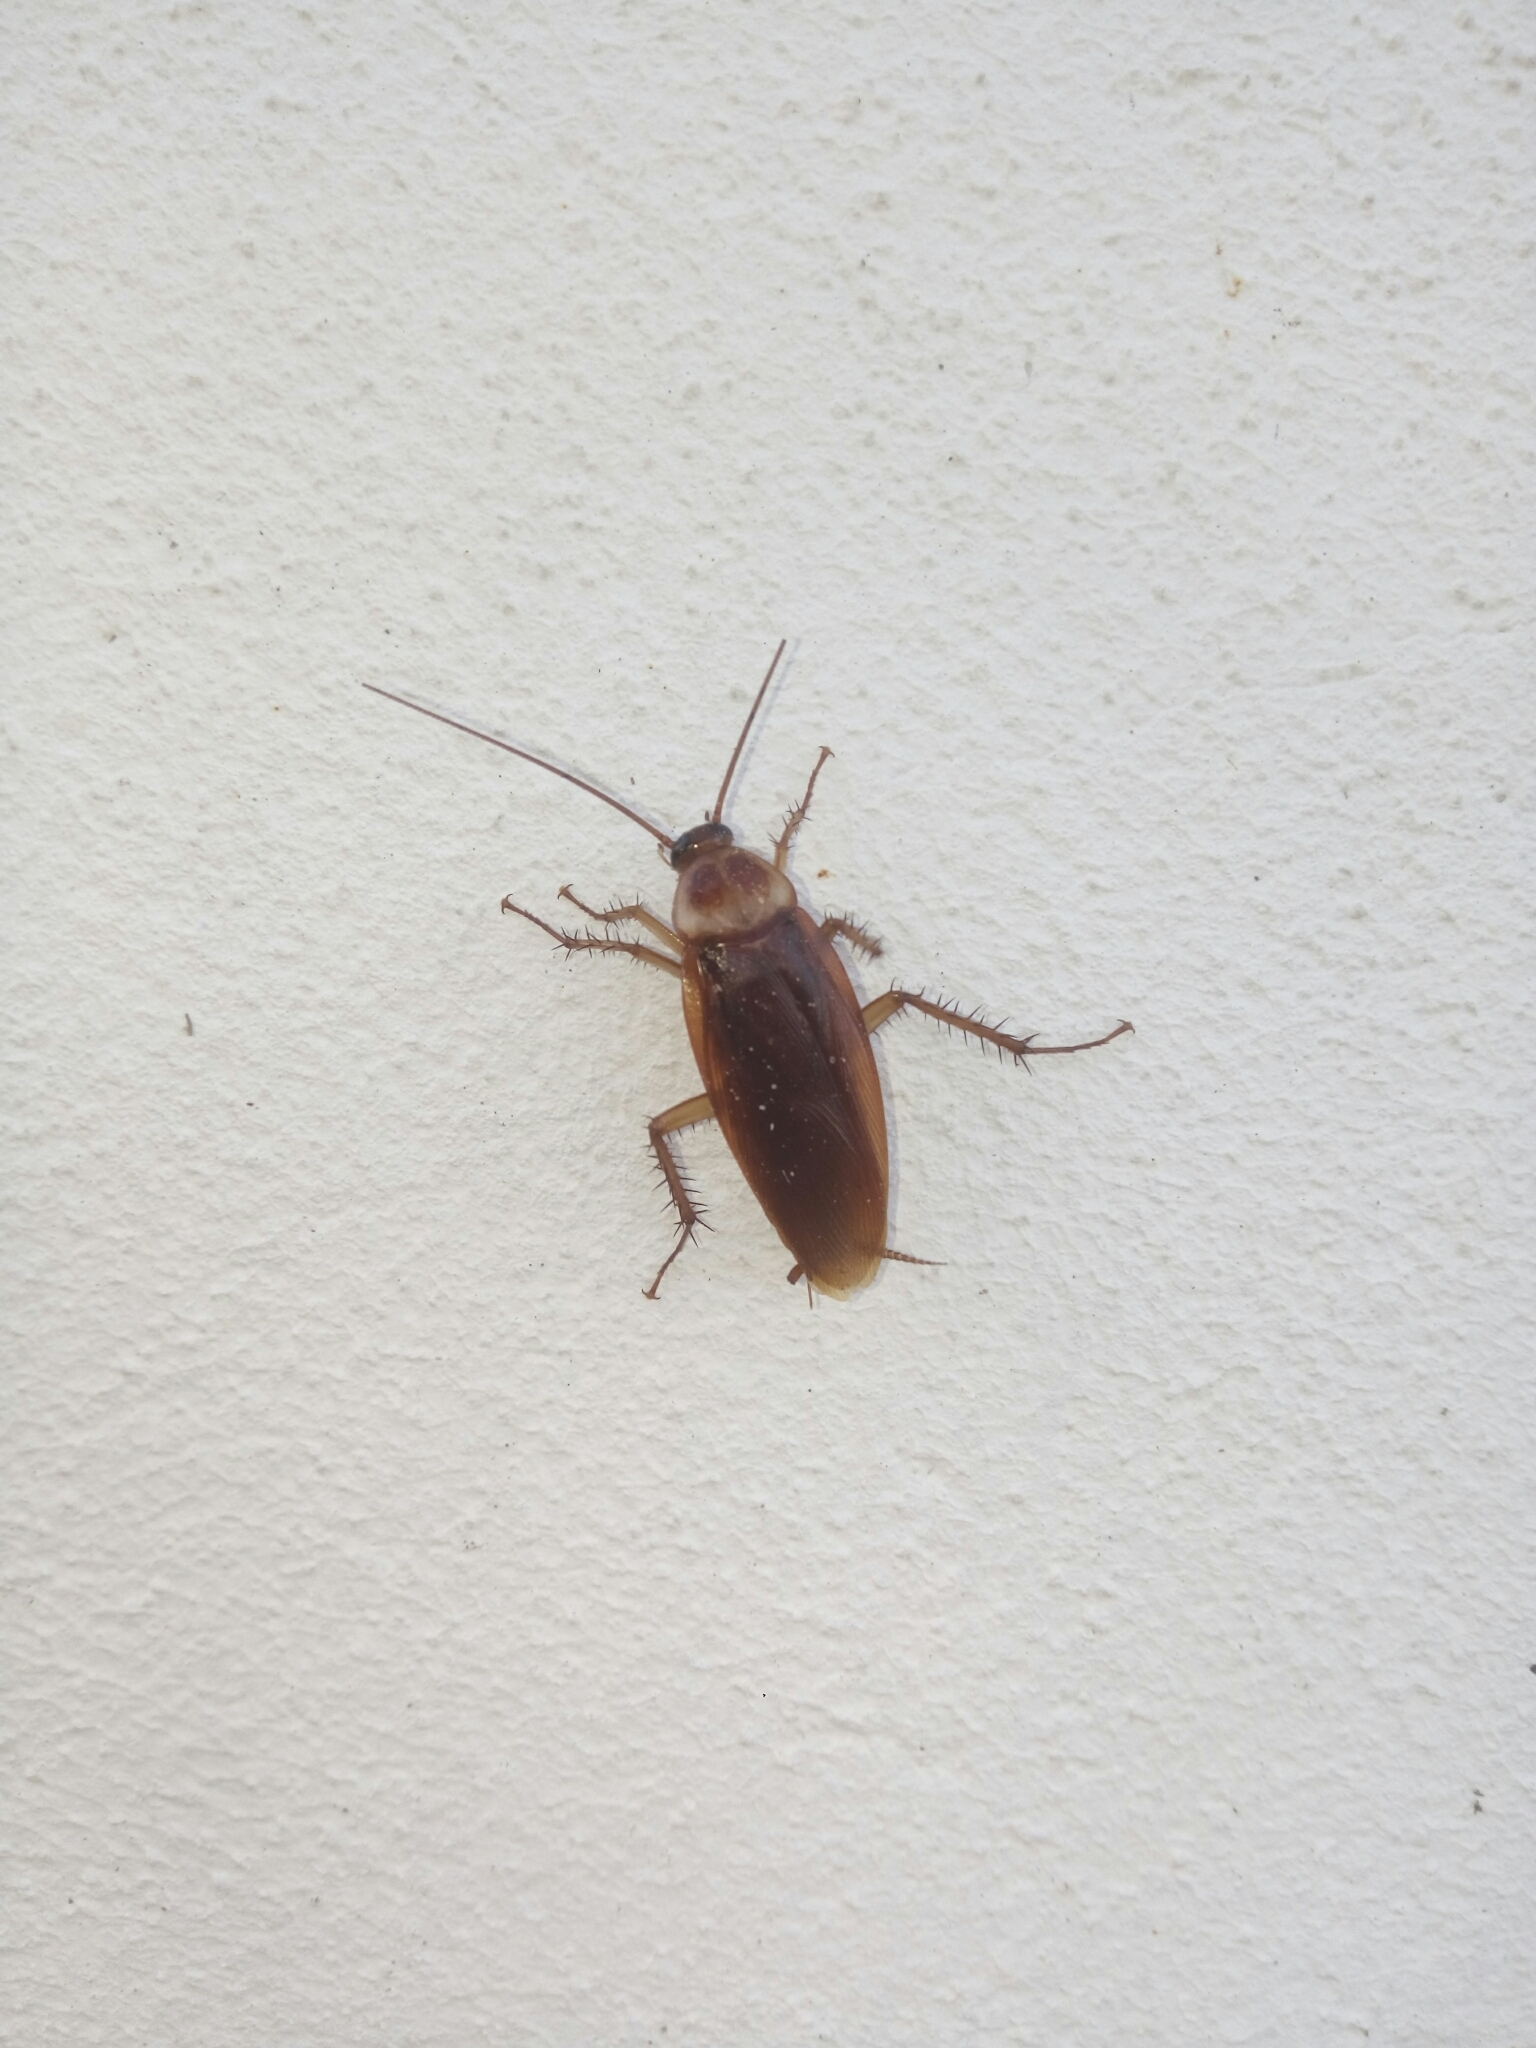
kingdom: Animalia
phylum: Arthropoda
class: Insecta
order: Blattodea
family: Blattidae
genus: Periplaneta
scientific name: Periplaneta americana
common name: American cockroach
